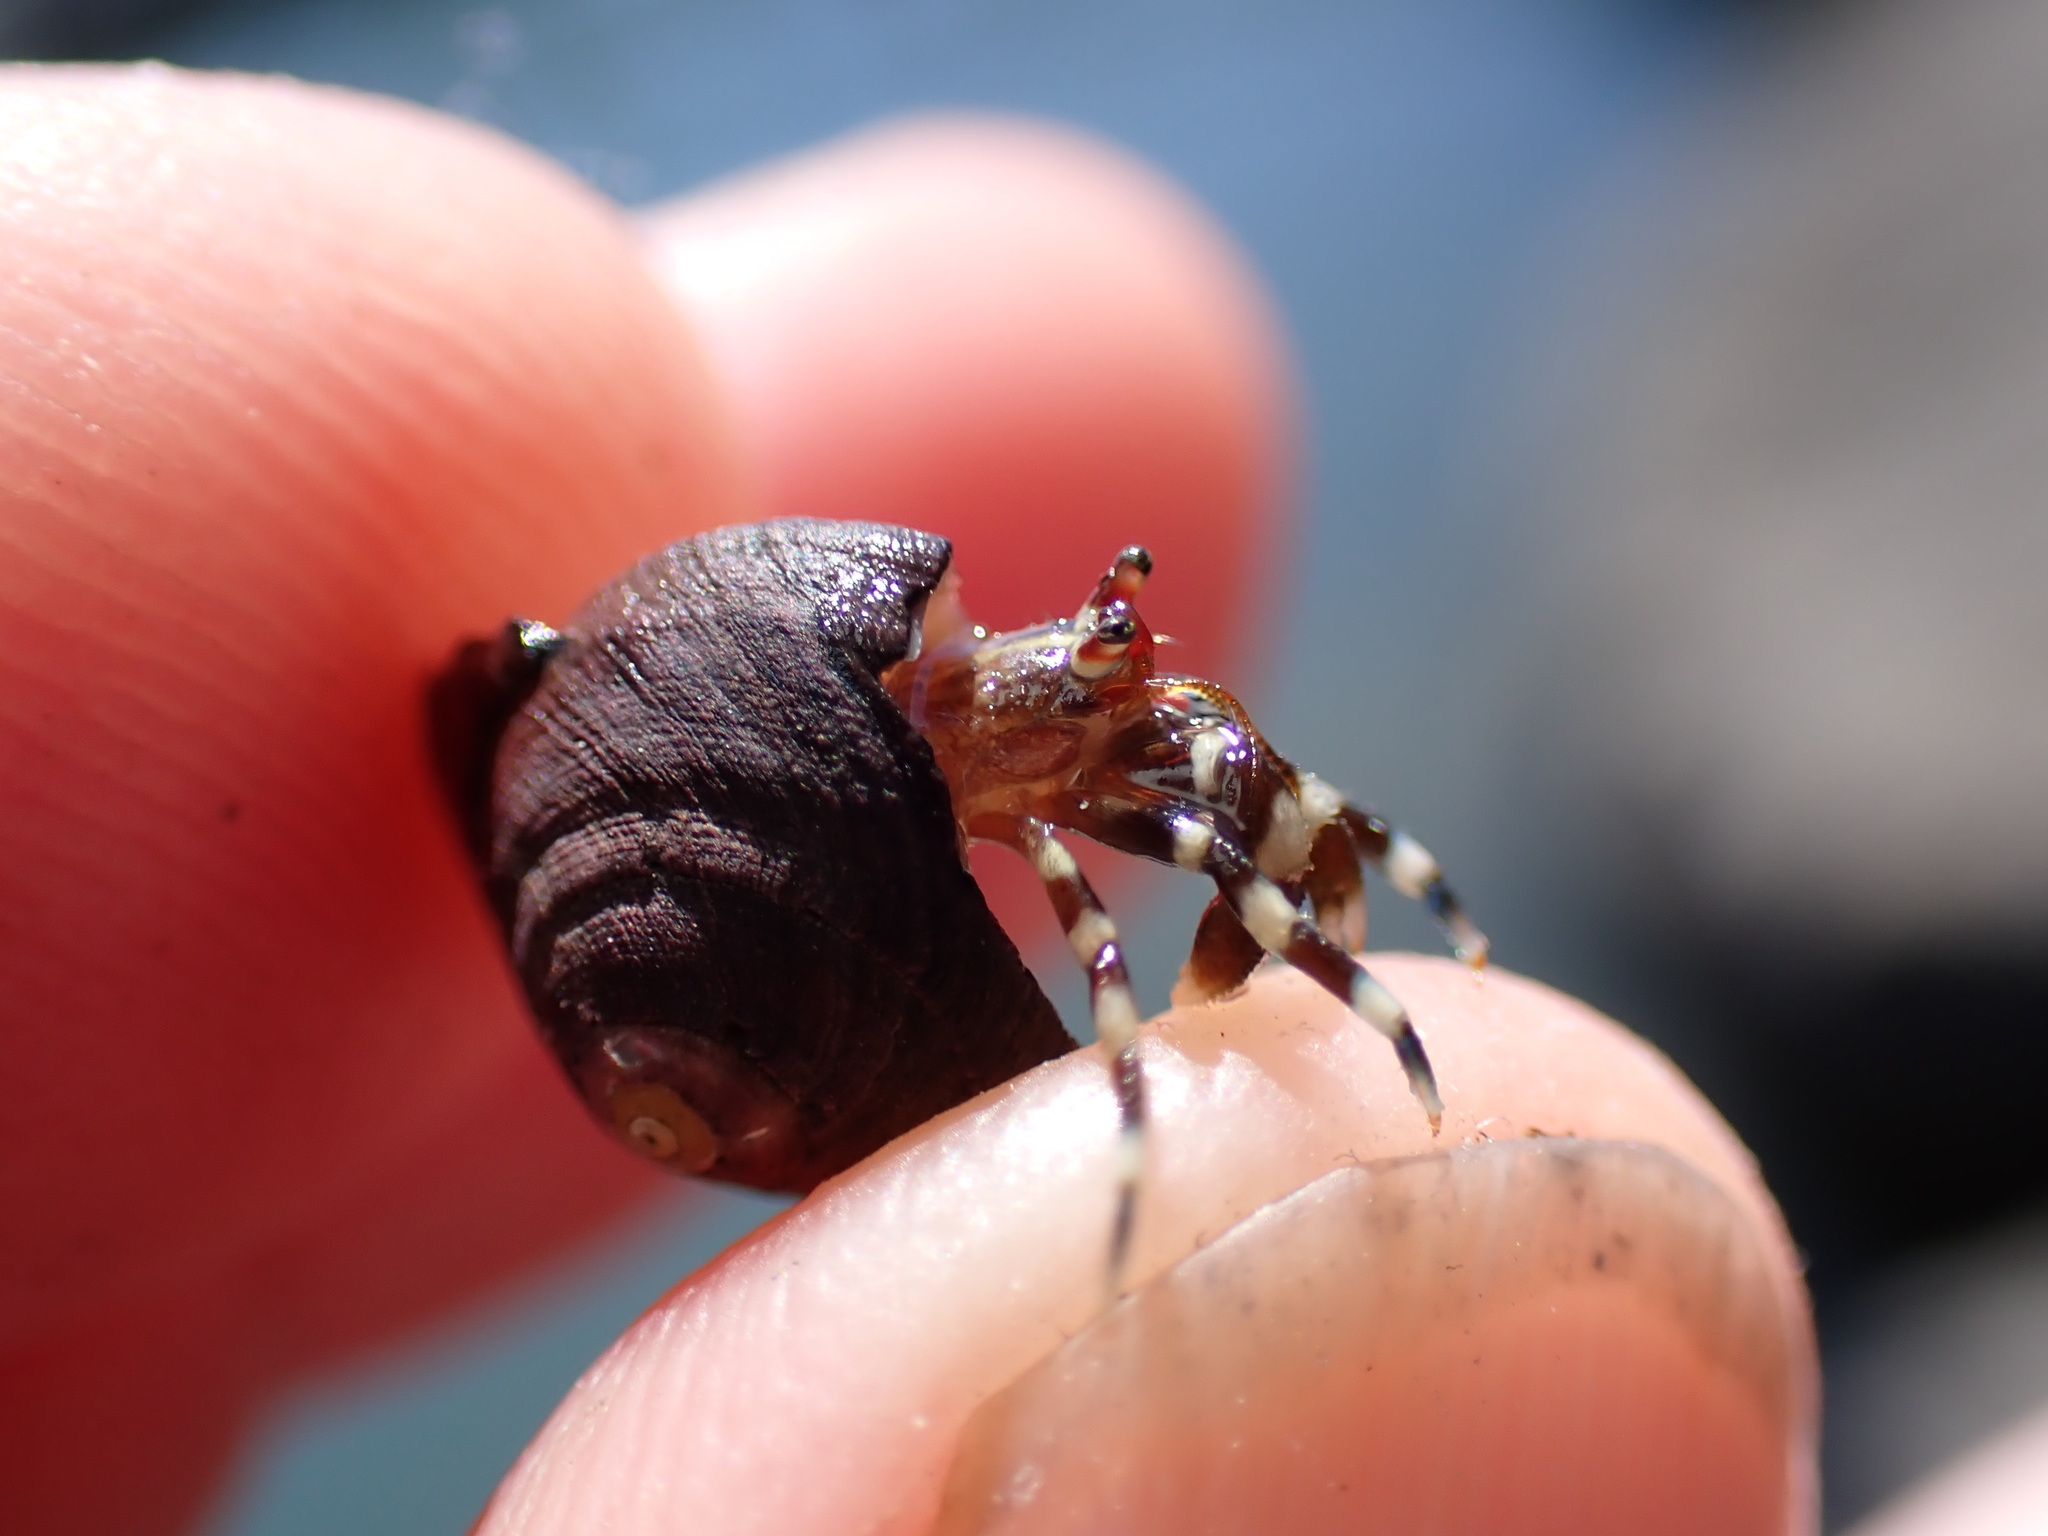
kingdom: Animalia
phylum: Arthropoda
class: Malacostraca
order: Decapoda
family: Paguridae
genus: Pagurus
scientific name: Pagurus samuelis
